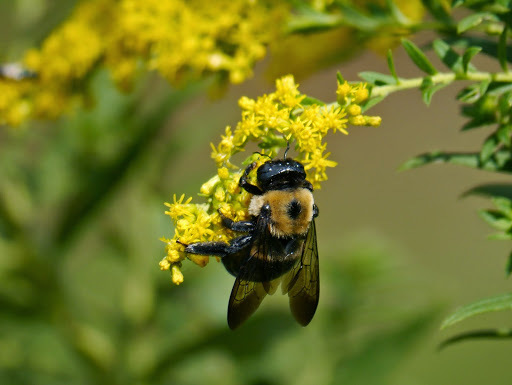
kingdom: Animalia
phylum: Arthropoda
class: Insecta
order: Hymenoptera
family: Apidae
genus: Xylocopa
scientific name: Xylocopa virginica
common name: Carpenter bee
